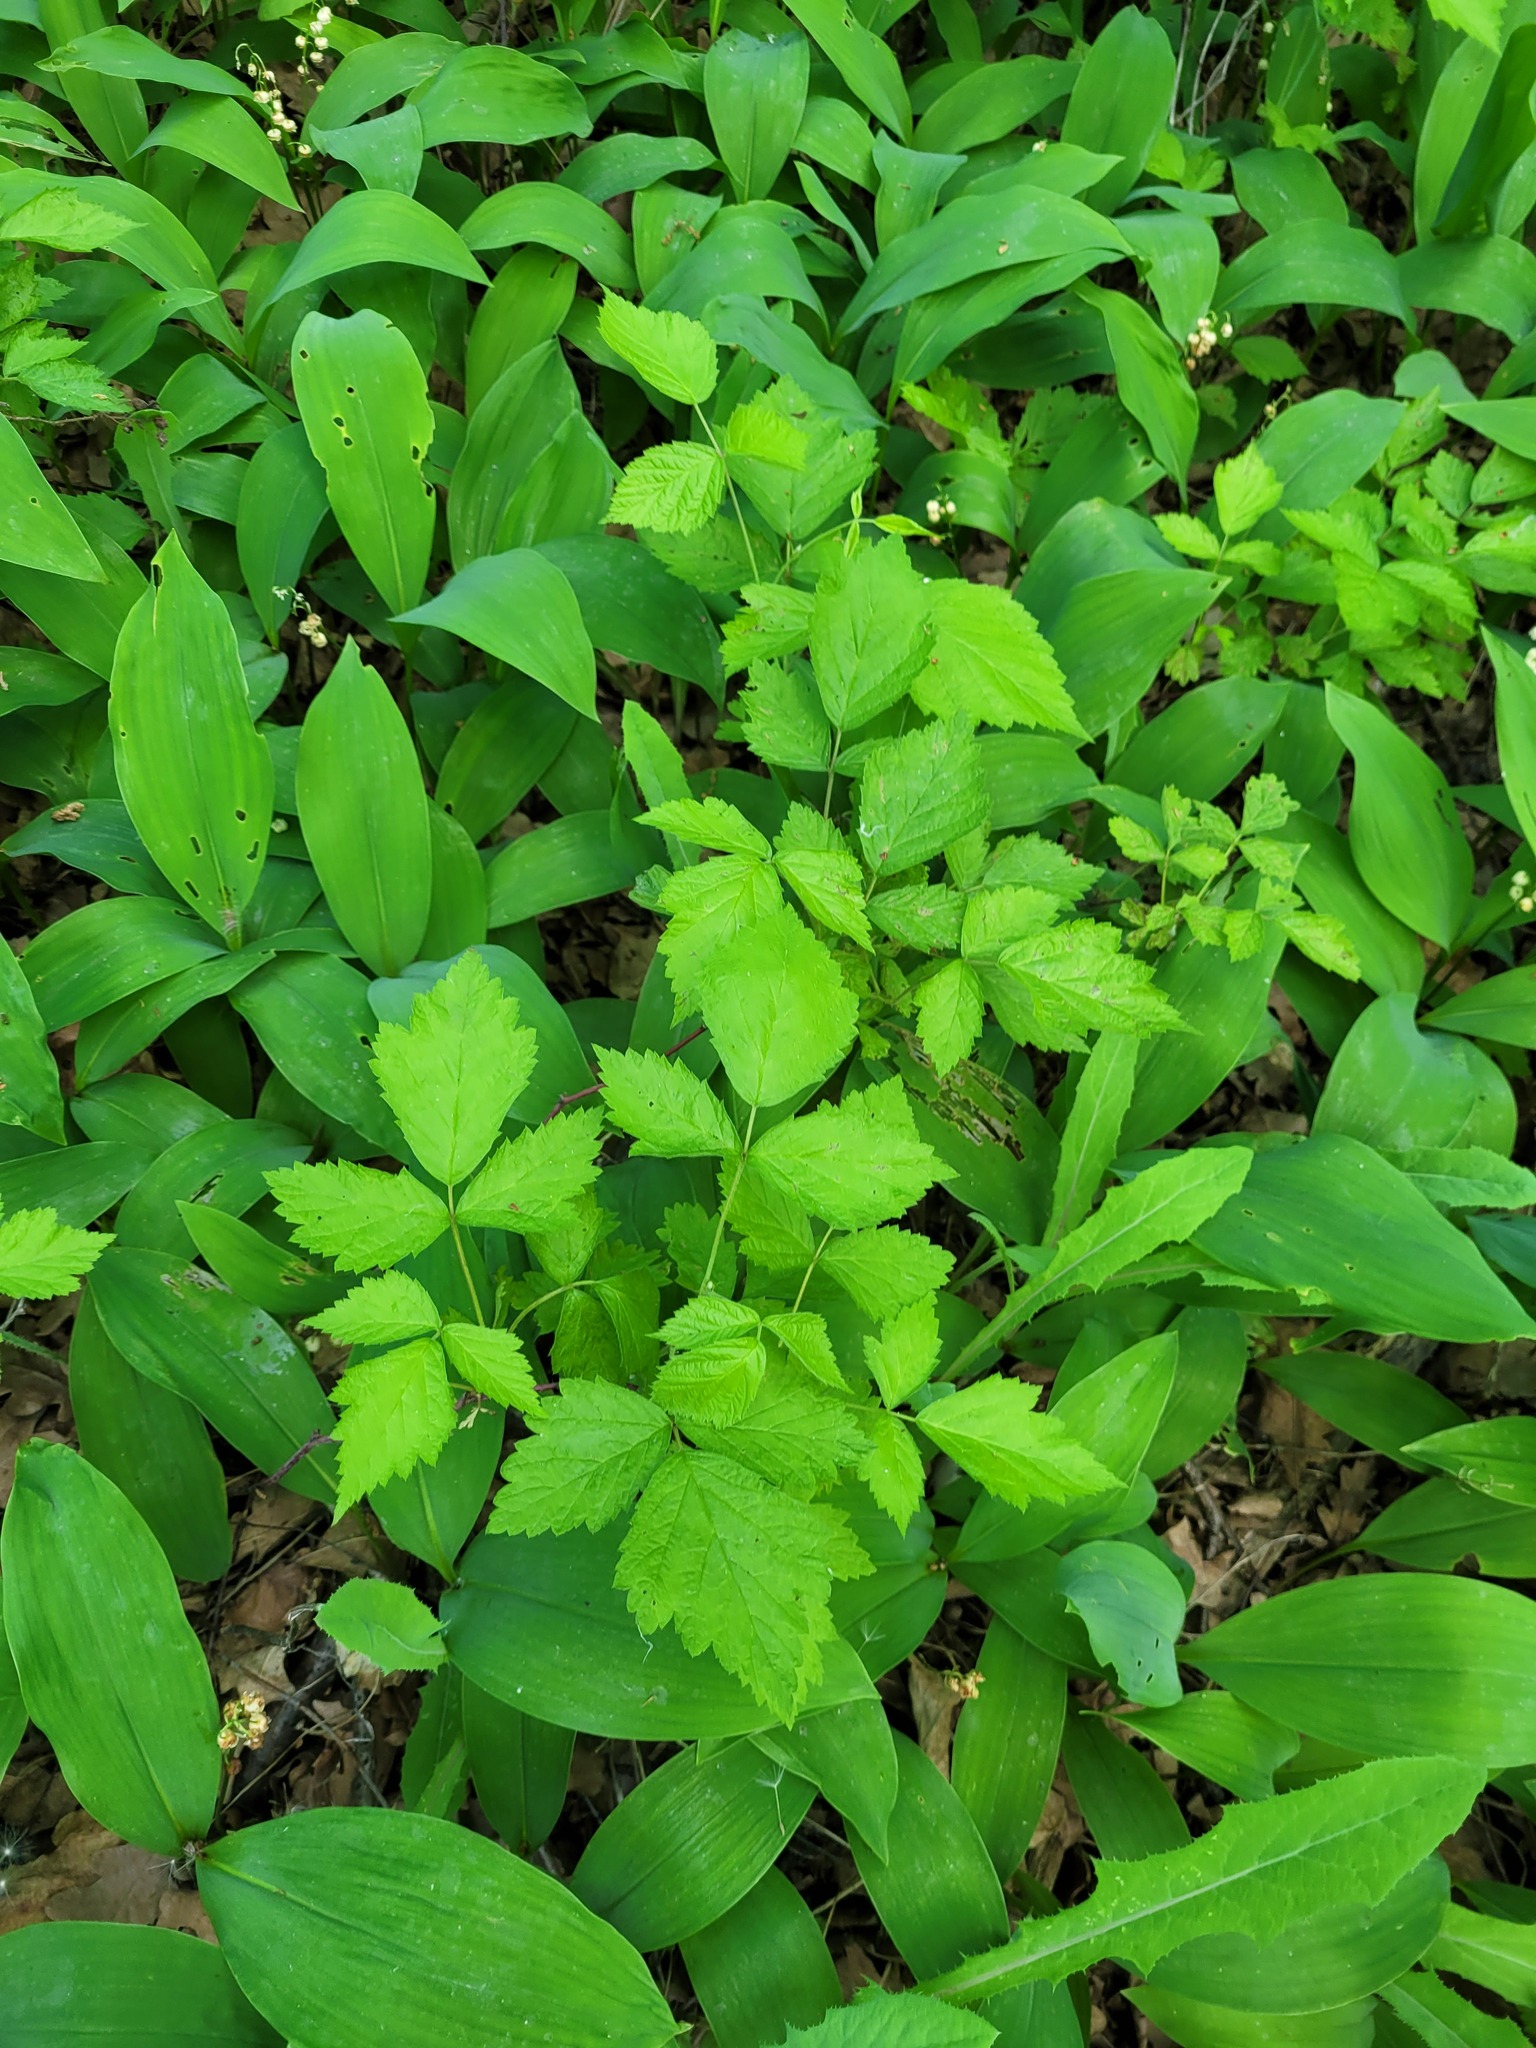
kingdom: Plantae
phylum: Tracheophyta
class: Magnoliopsida
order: Rosales
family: Rosaceae
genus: Rubus
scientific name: Rubus caesius
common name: Dewberry
